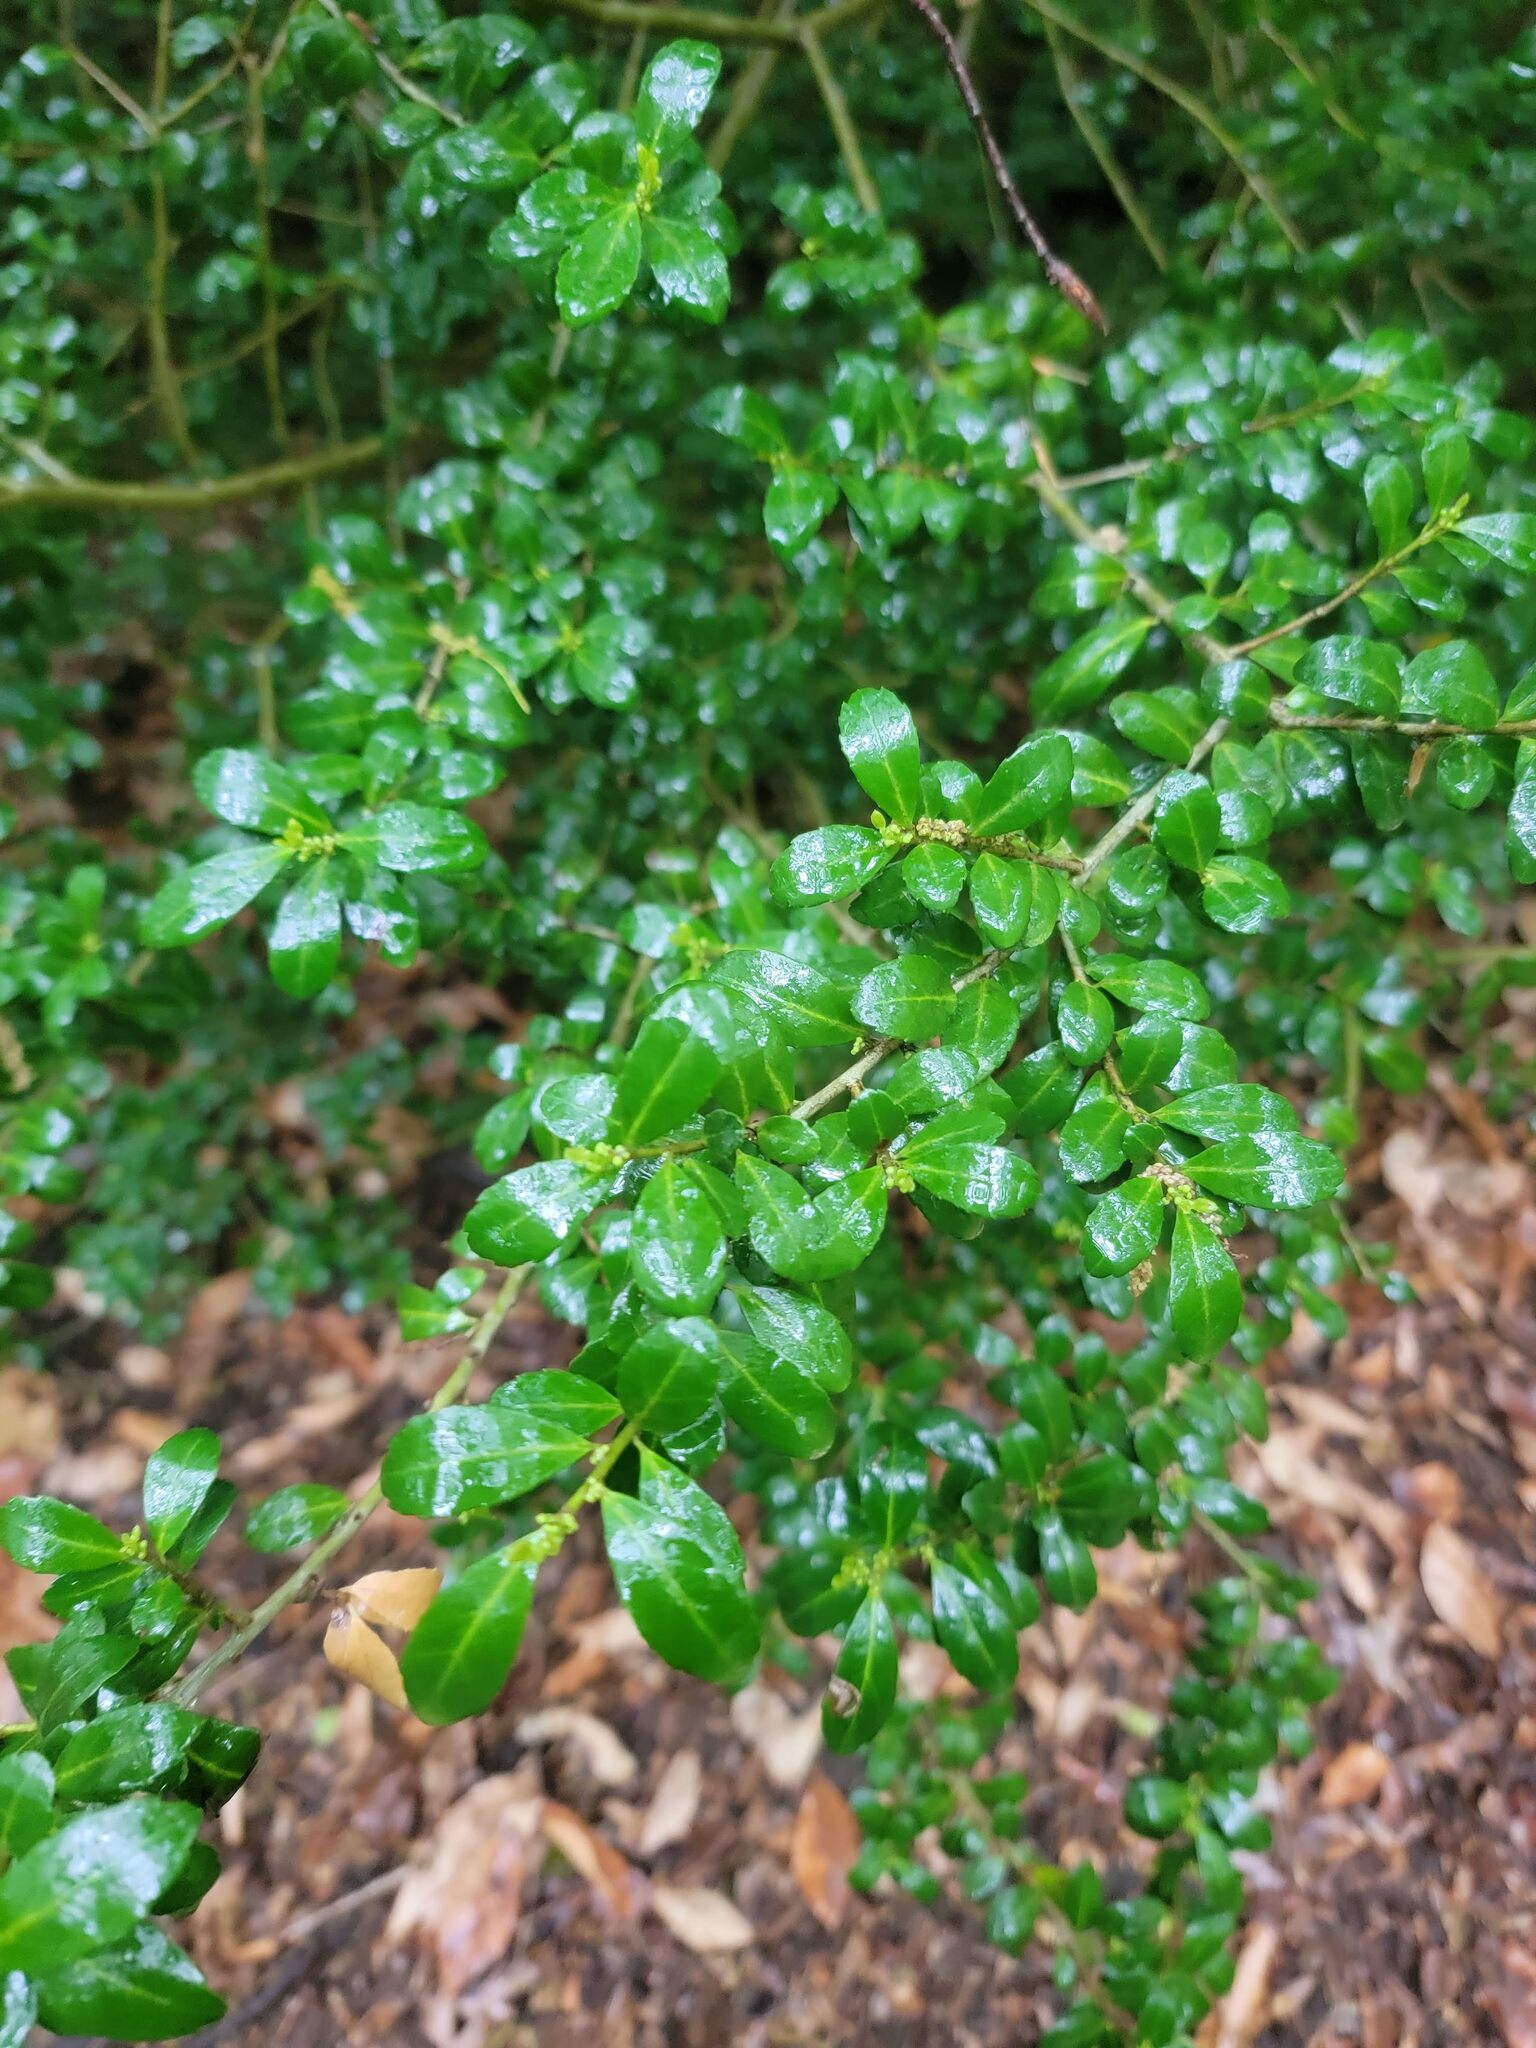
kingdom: Plantae
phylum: Tracheophyta
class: Magnoliopsida
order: Aquifoliales
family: Aquifoliaceae
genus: Ilex
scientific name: Ilex crenata
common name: Japanese holly
